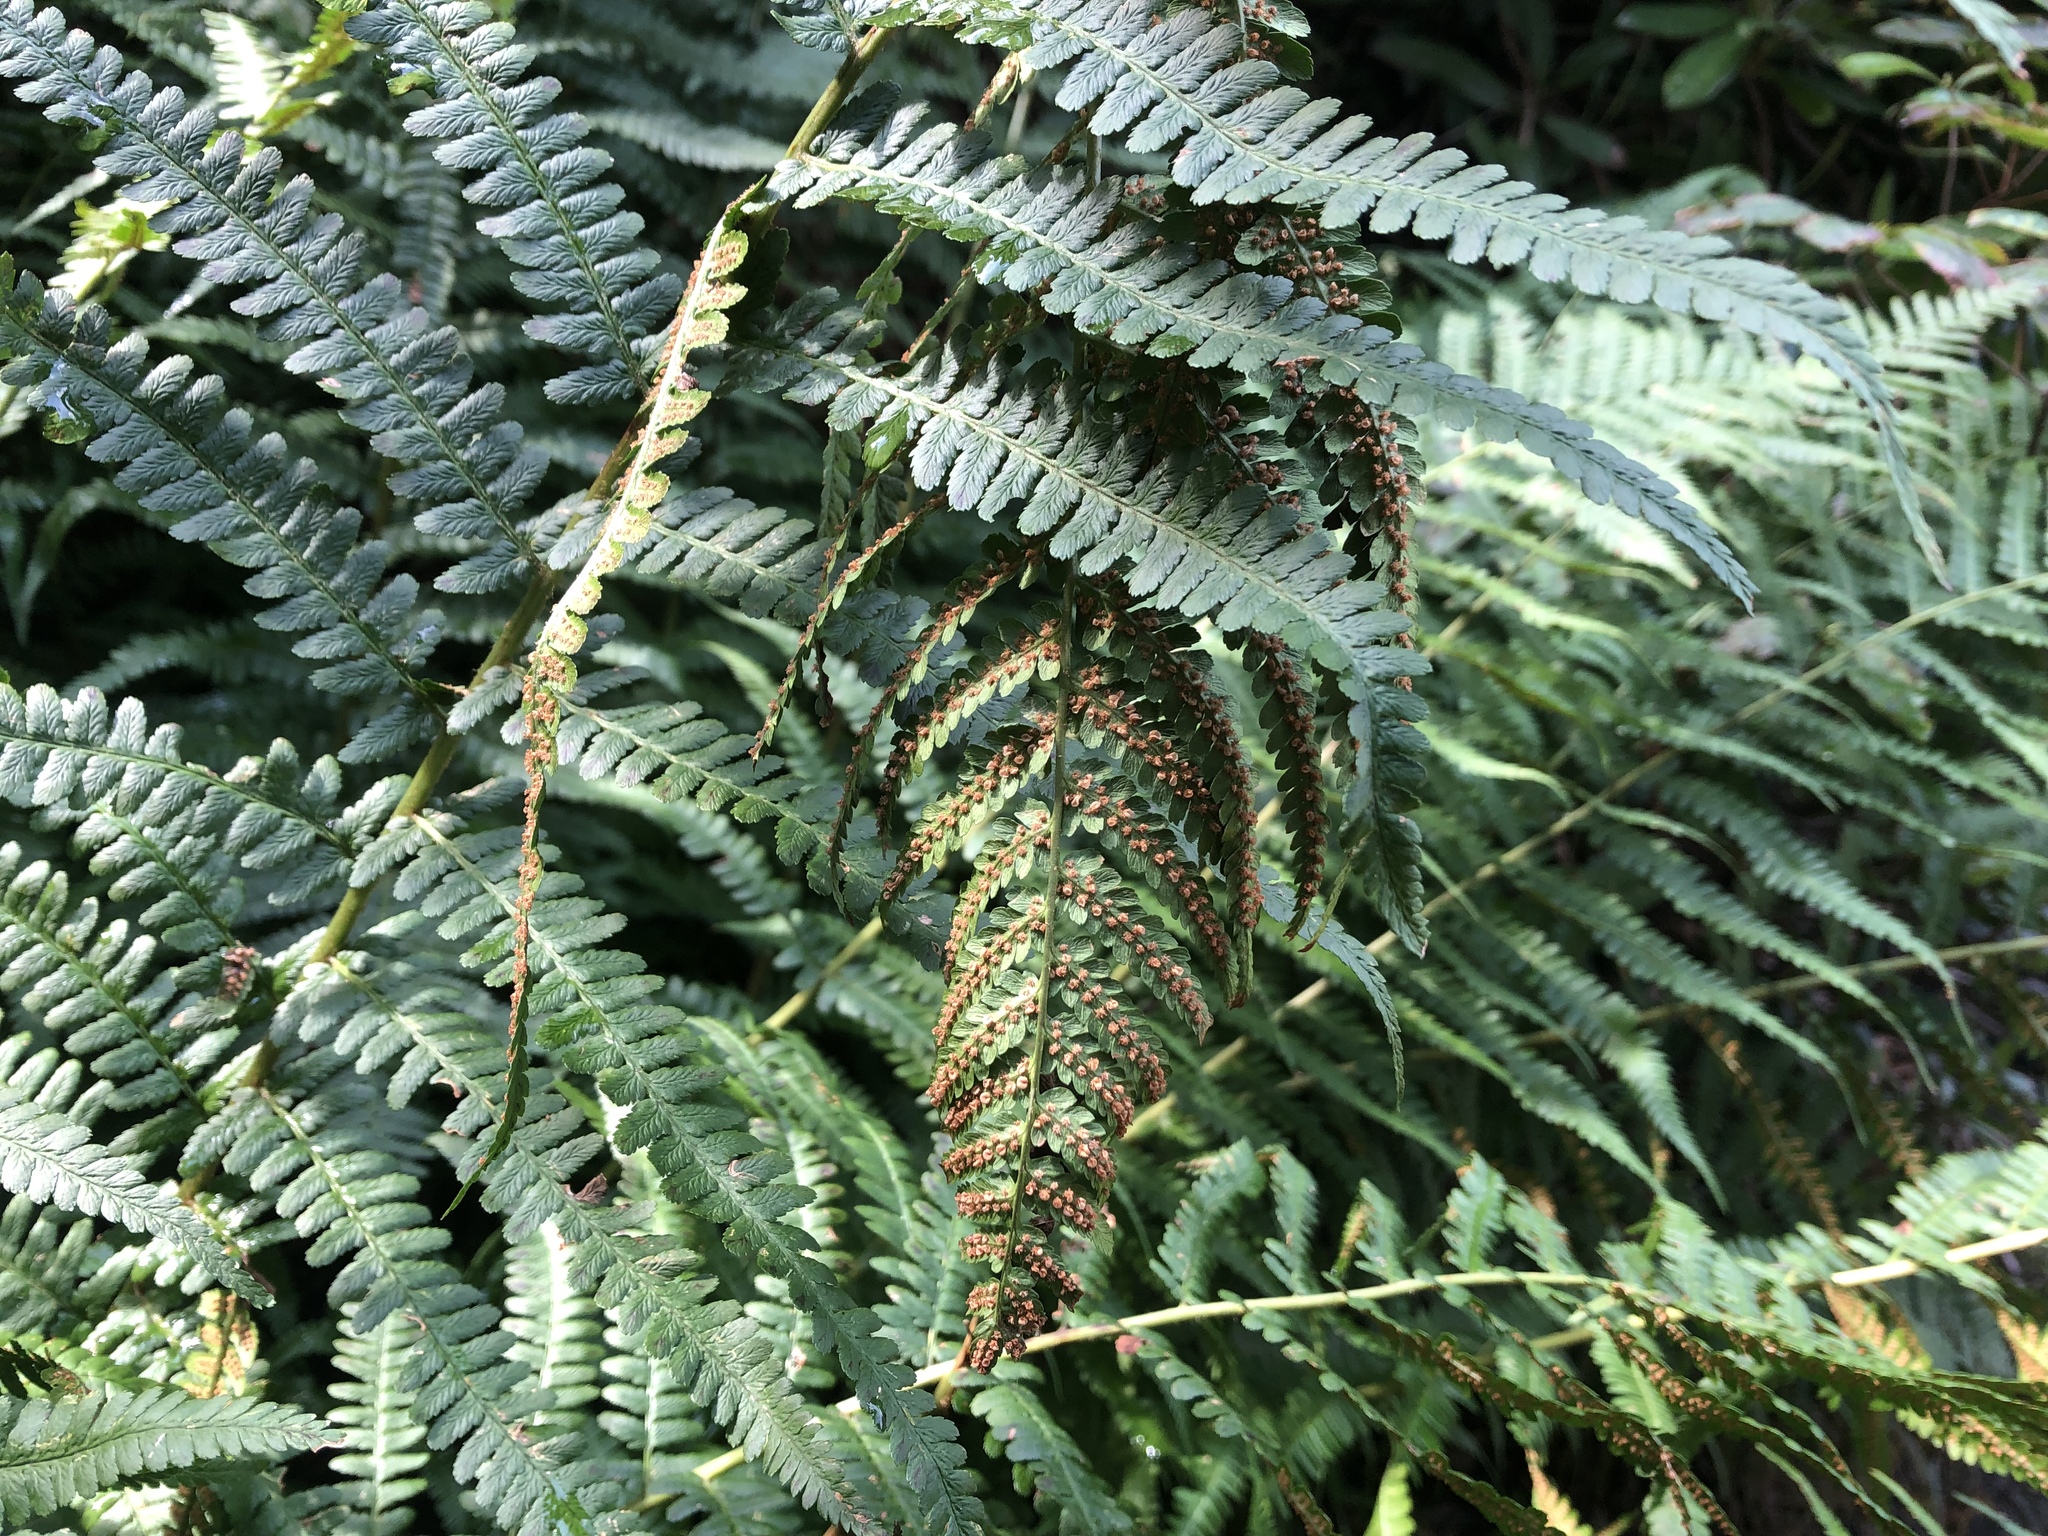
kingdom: Plantae
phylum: Tracheophyta
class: Polypodiopsida
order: Polypodiales
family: Dryopteridaceae
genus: Dryopteris
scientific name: Dryopteris filix-mas
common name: Male fern
